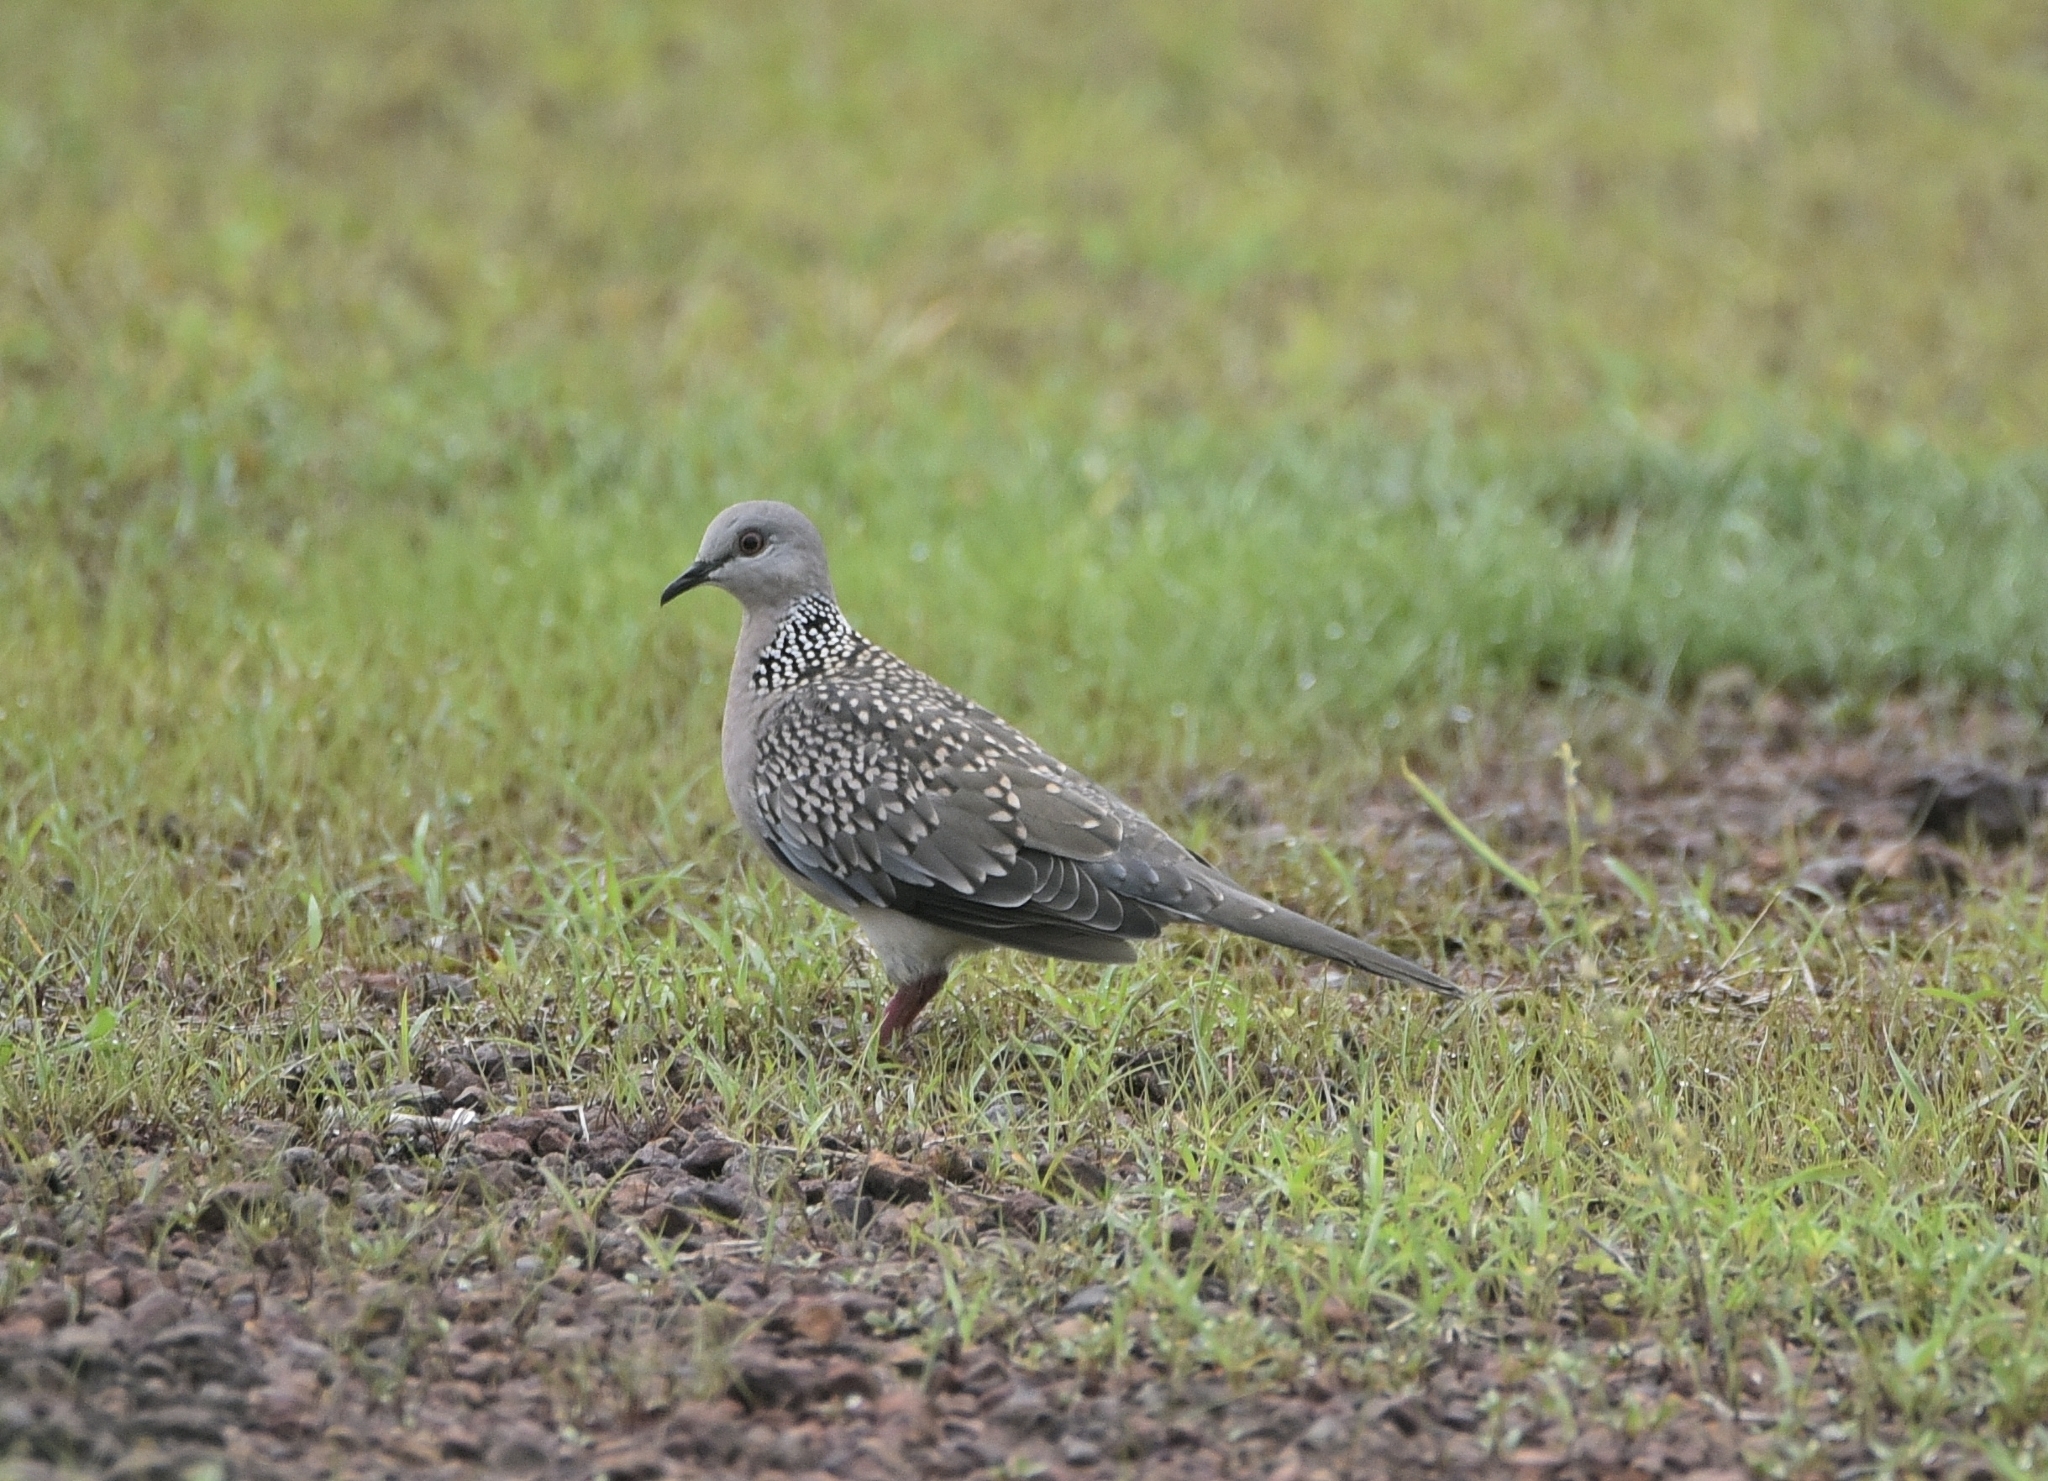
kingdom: Animalia
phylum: Chordata
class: Aves
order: Columbiformes
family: Columbidae
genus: Spilopelia
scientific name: Spilopelia chinensis
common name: Spotted dove
